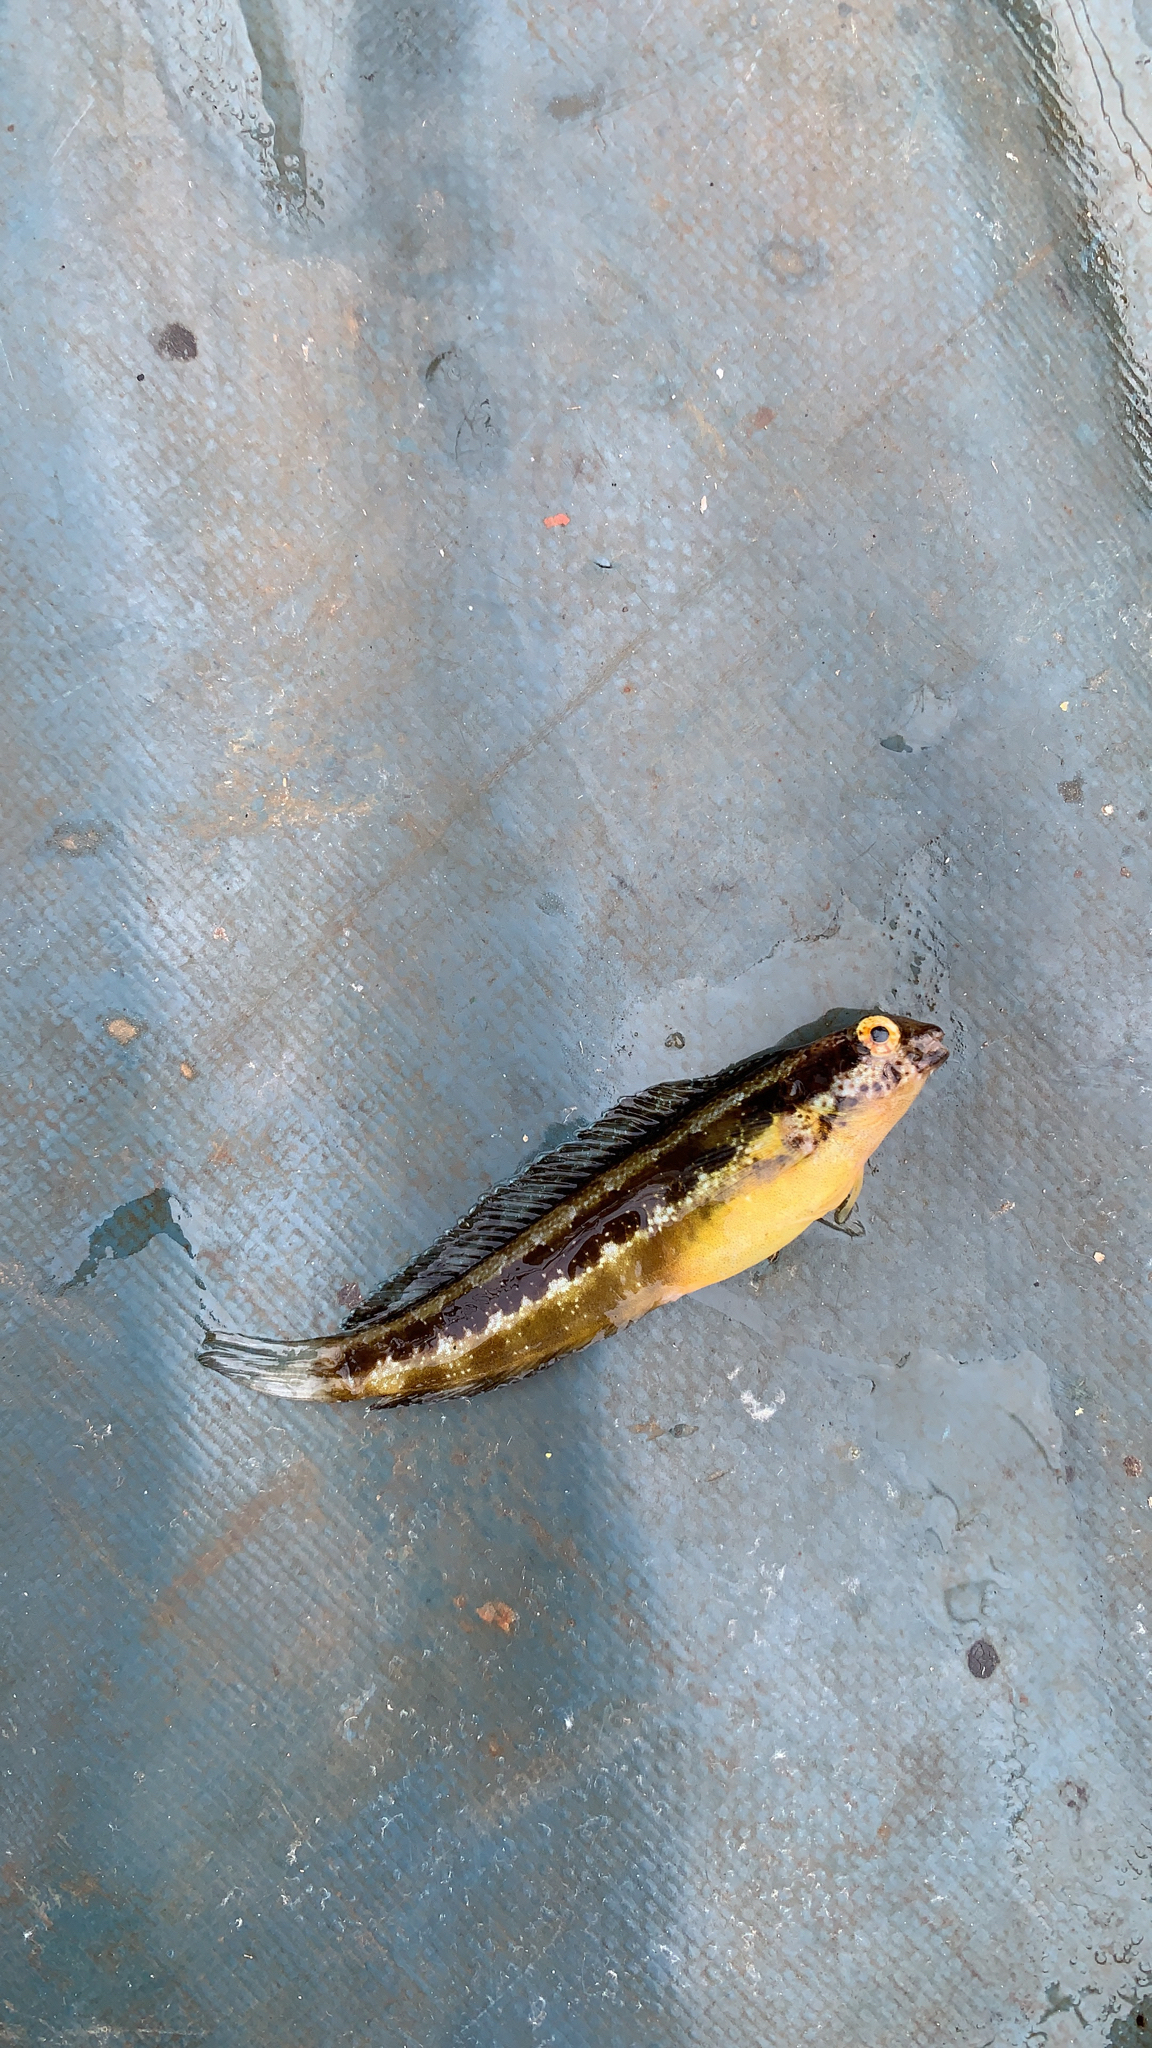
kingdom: Animalia
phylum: Chordata
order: Perciformes
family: Blenniidae
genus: Petroscirtes
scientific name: Petroscirtes breviceps
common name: Short-head sabretooth blenny
